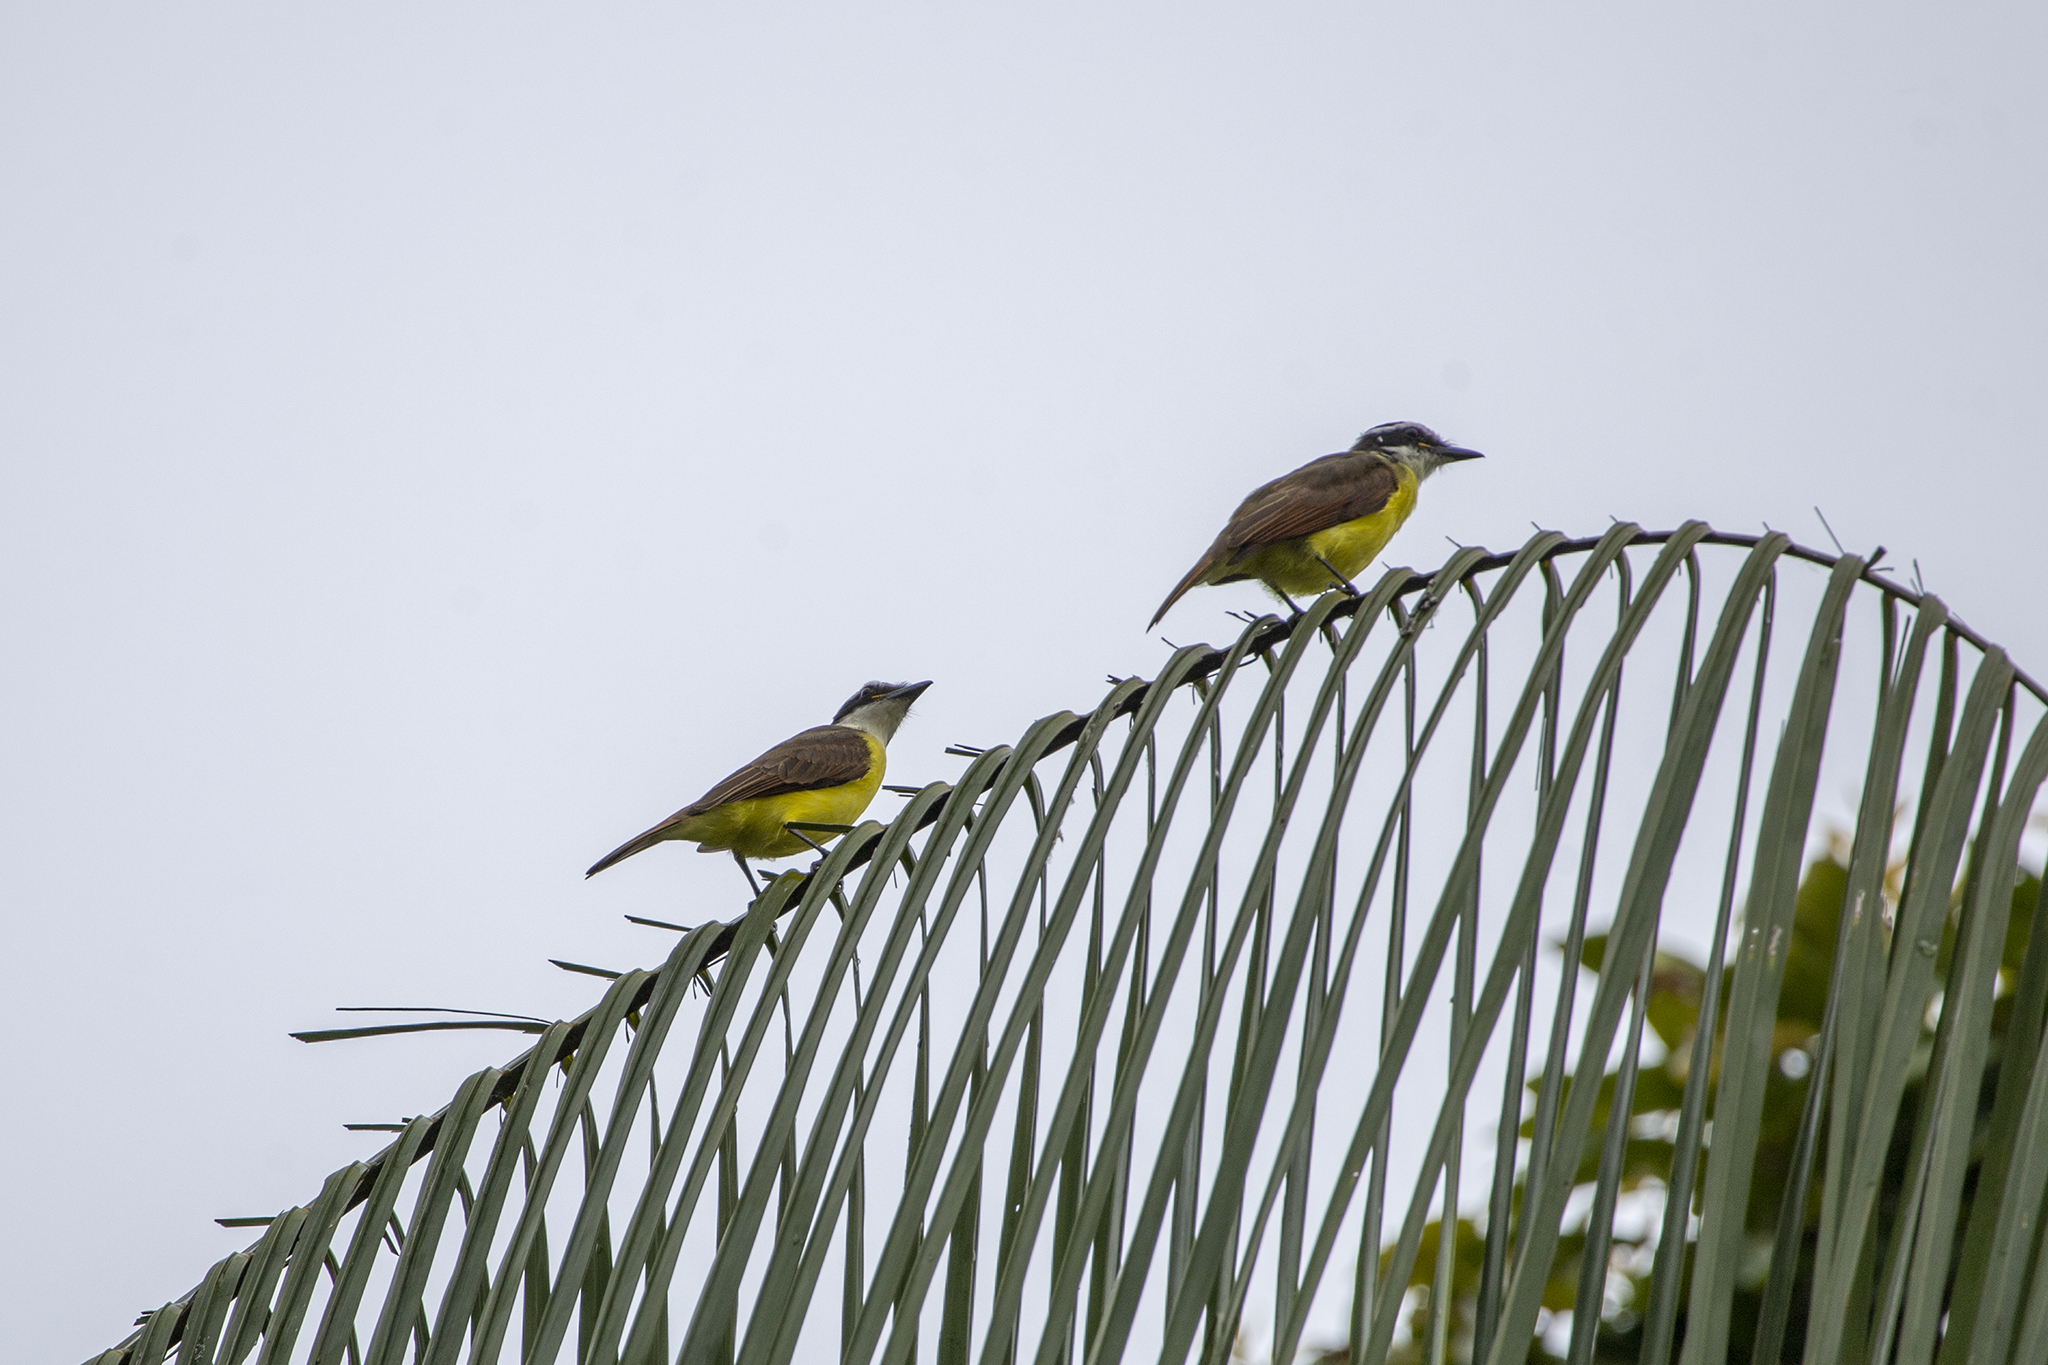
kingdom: Animalia
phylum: Chordata
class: Aves
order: Passeriformes
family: Tyrannidae
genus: Pitangus
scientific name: Pitangus sulphuratus
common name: Great kiskadee
